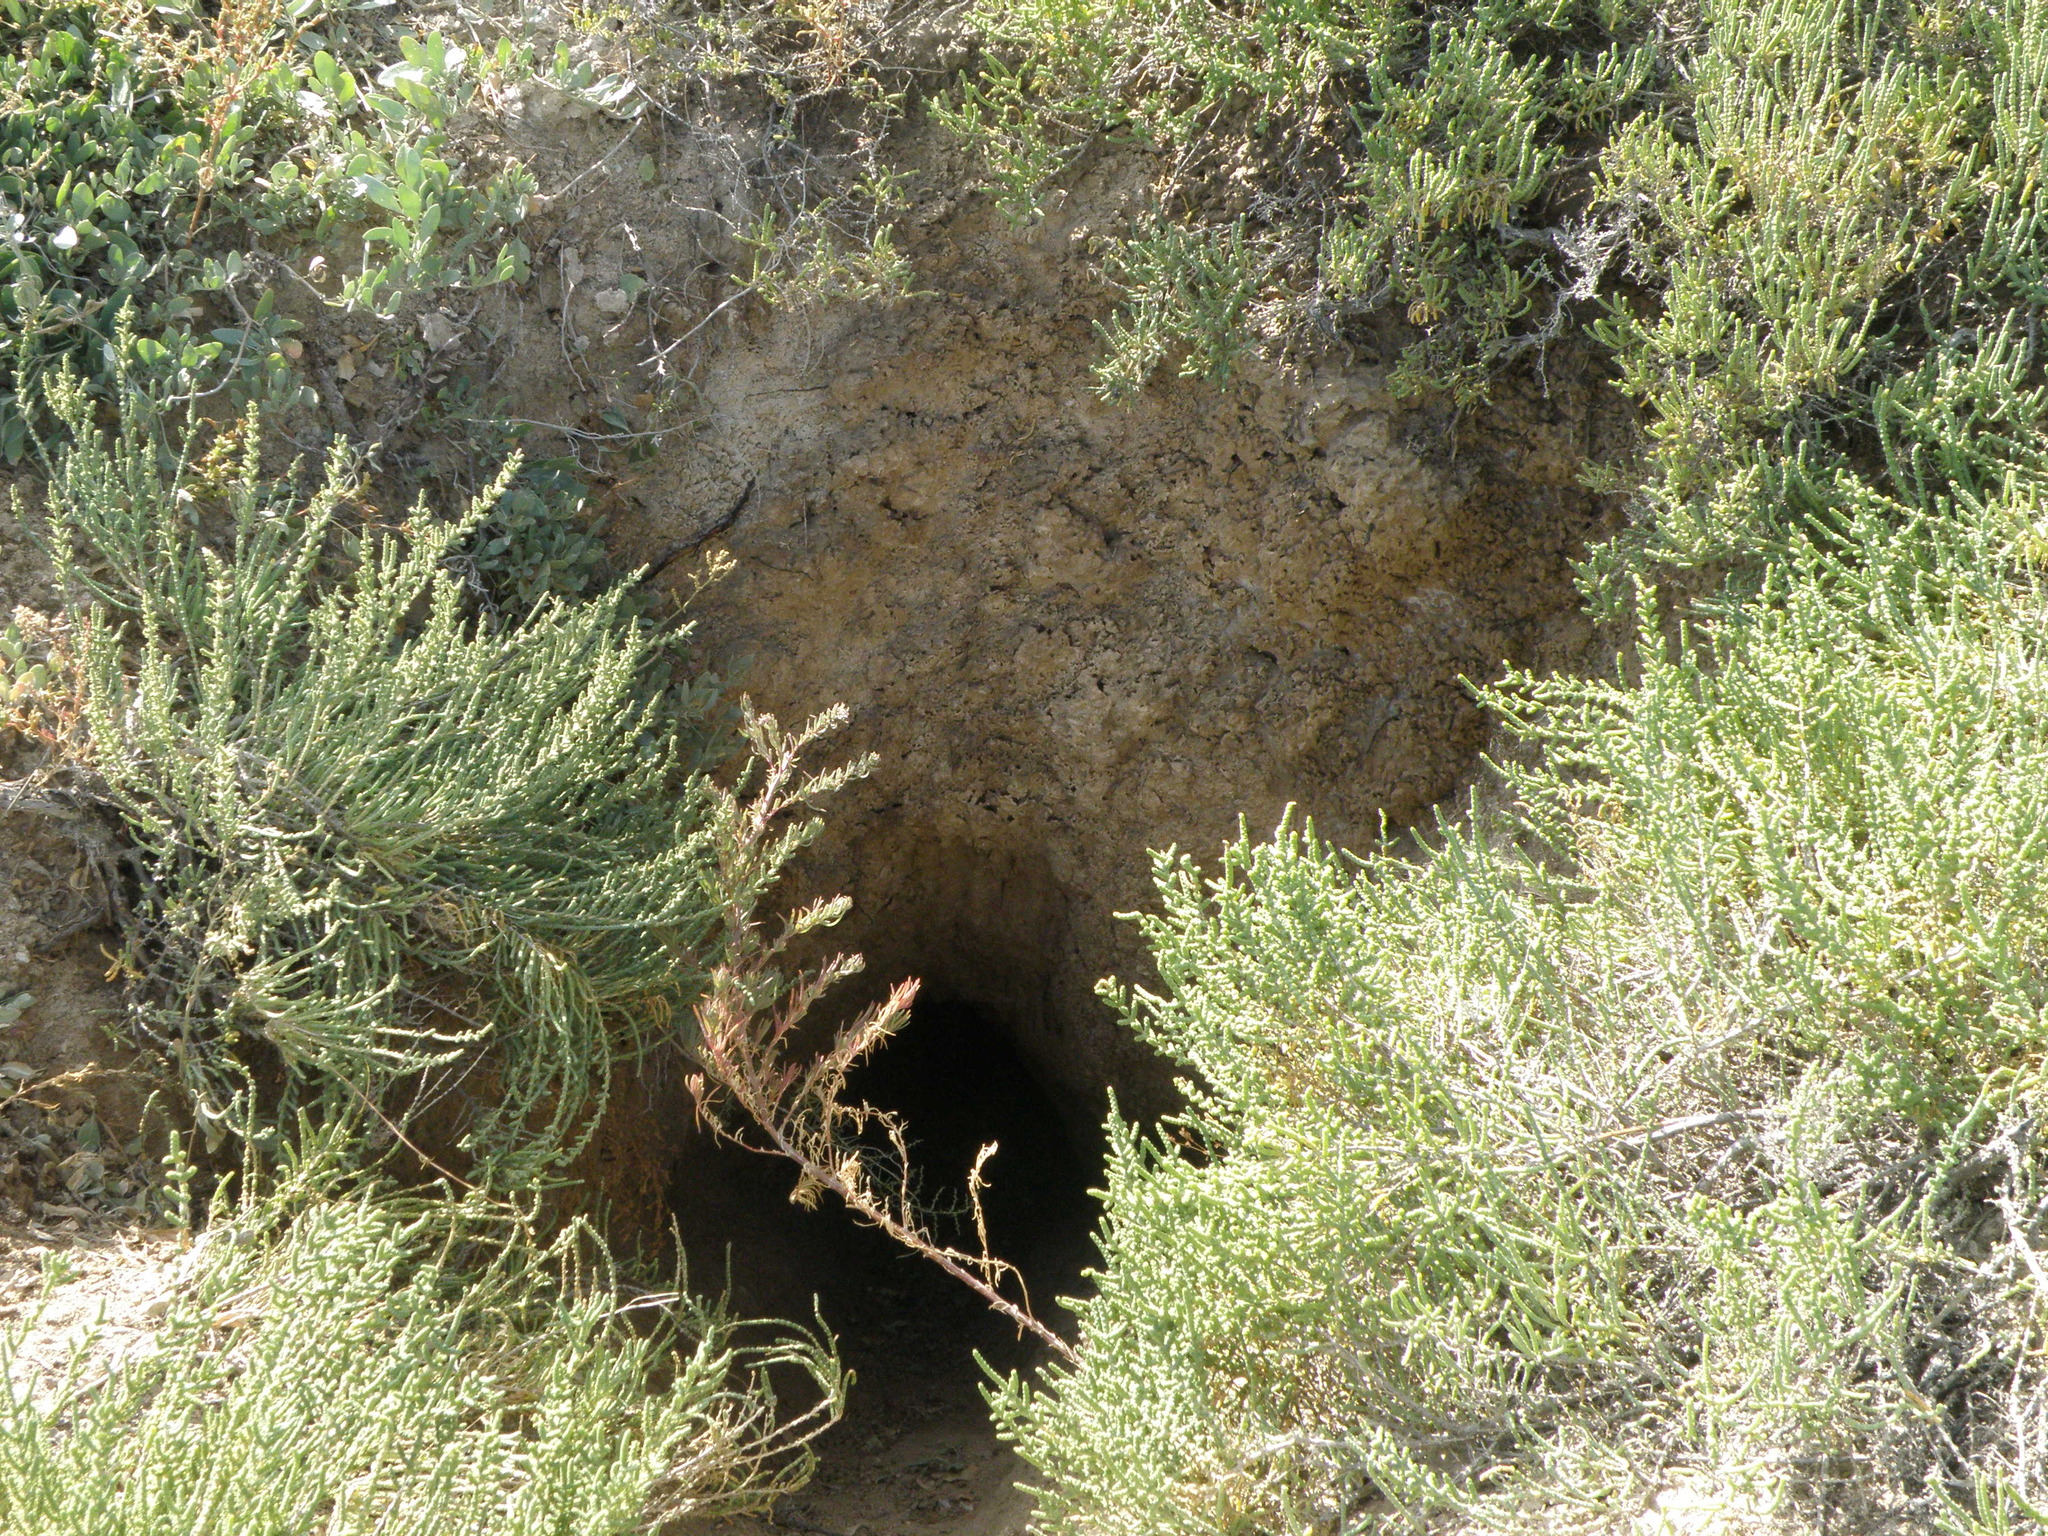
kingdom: Plantae
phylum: Tracheophyta
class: Magnoliopsida
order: Caryophyllales
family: Amaranthaceae
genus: Halocnemum
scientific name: Halocnemum strobilaceum
